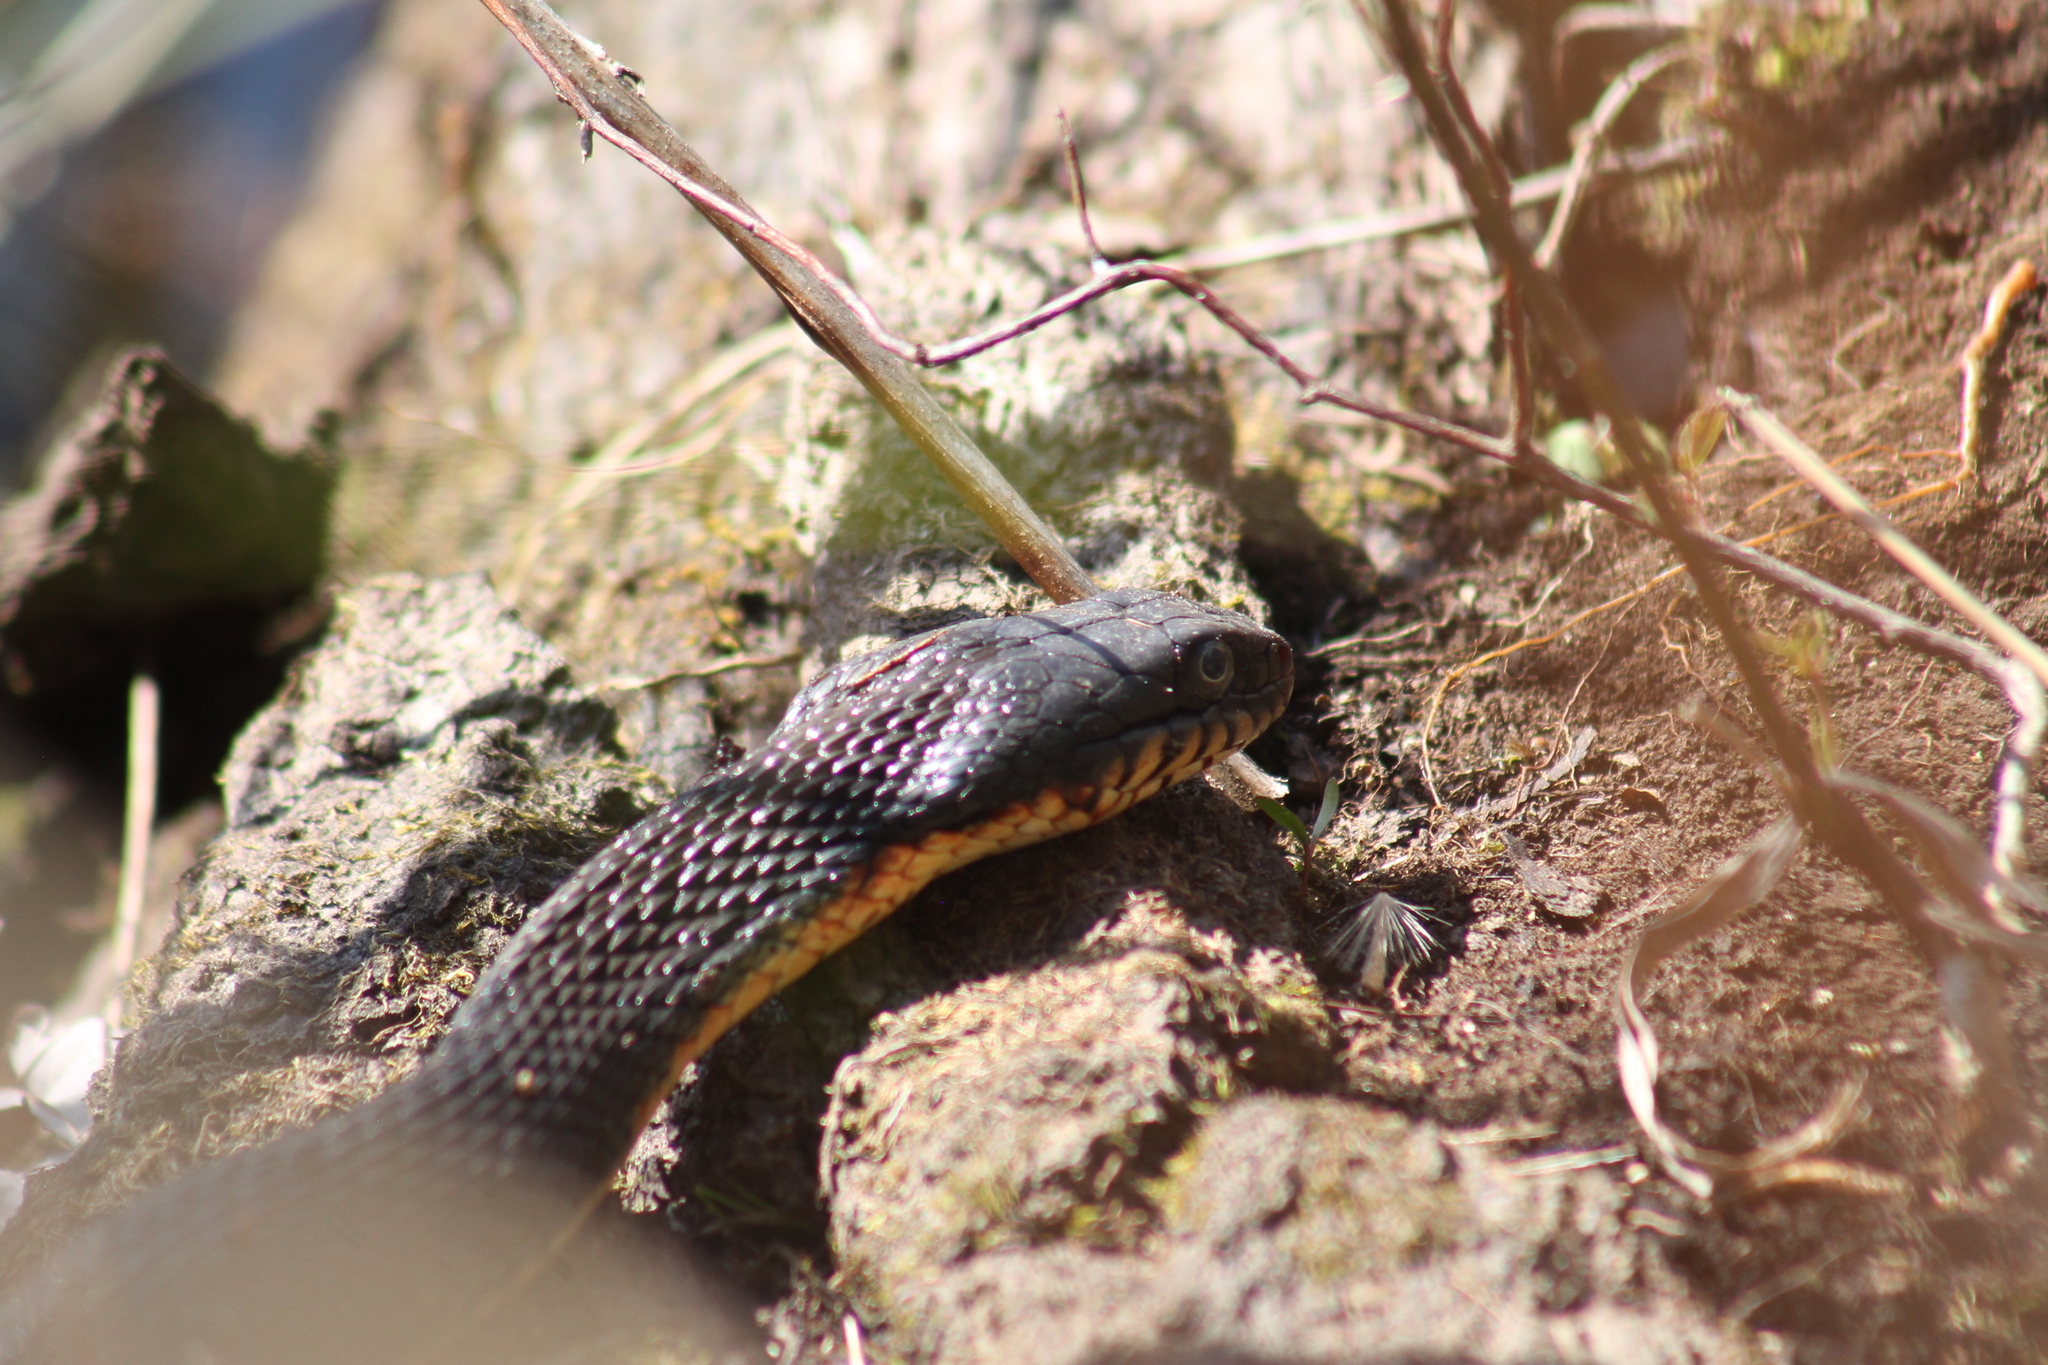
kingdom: Animalia
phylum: Chordata
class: Squamata
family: Colubridae
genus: Nerodia
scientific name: Nerodia erythrogaster
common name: Plainbelly water snake
